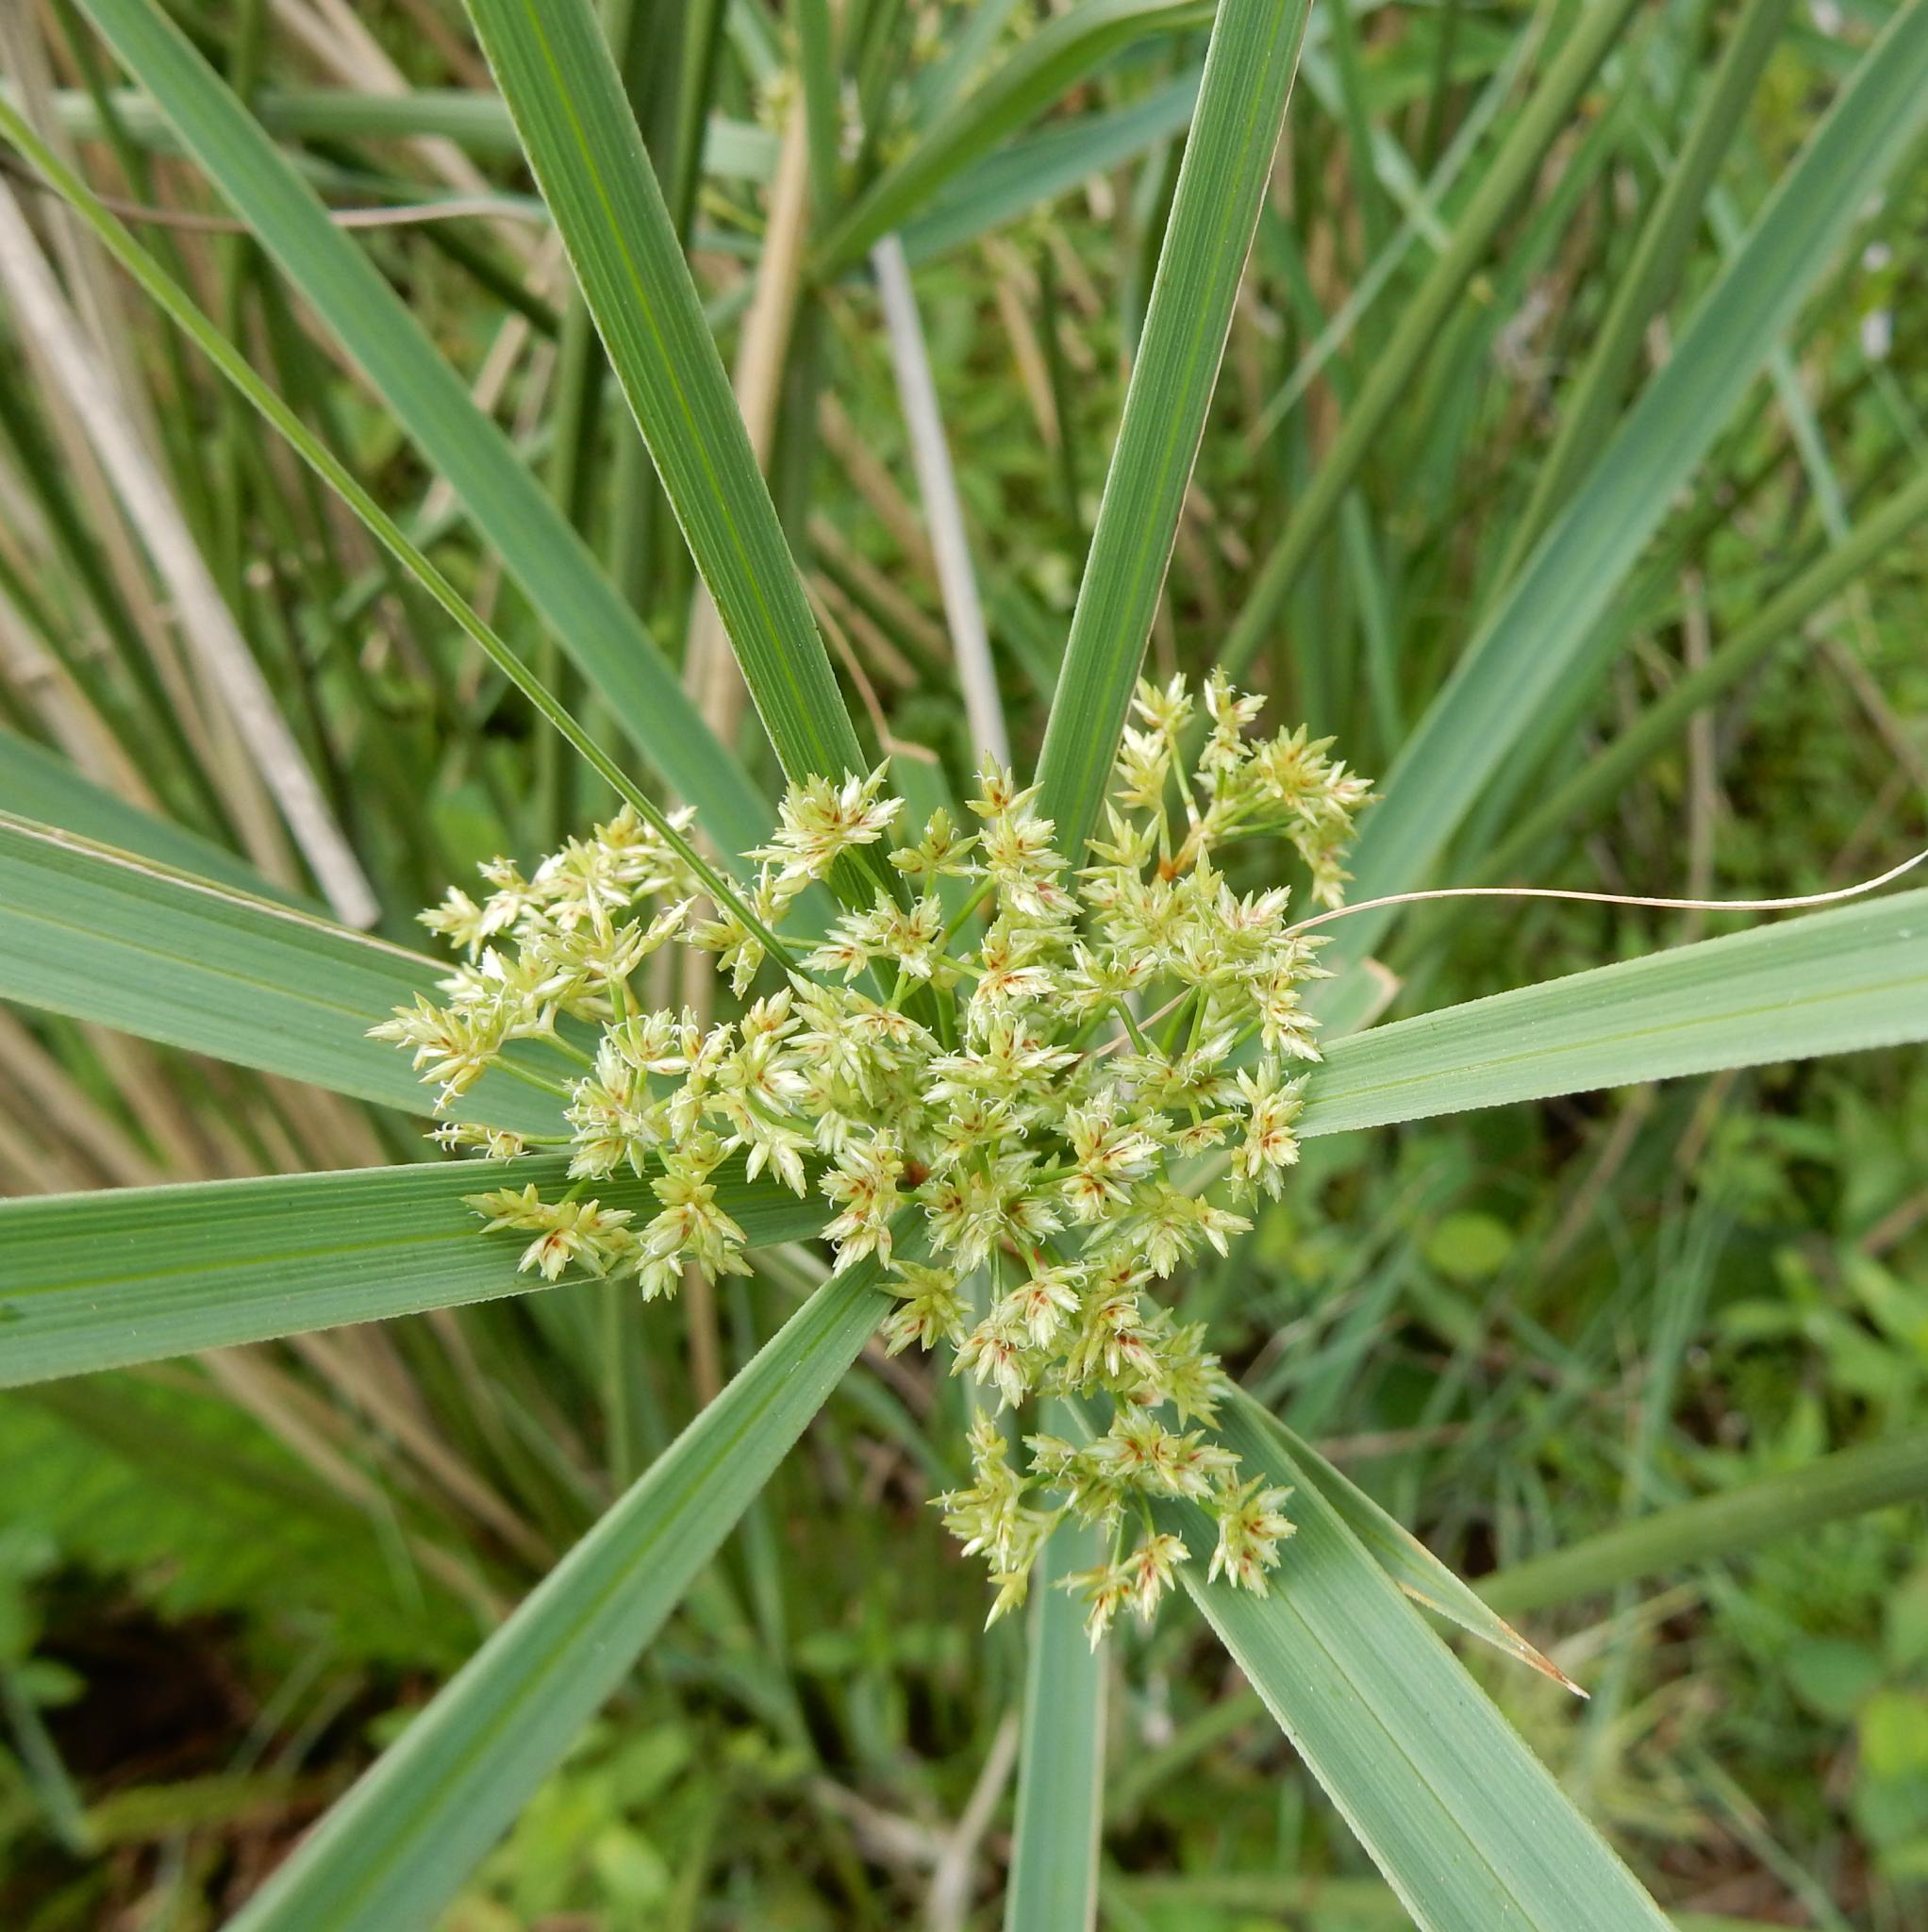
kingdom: Plantae
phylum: Tracheophyta
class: Liliopsida
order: Poales
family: Cyperaceae
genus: Cyperus
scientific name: Cyperus sexangularis
